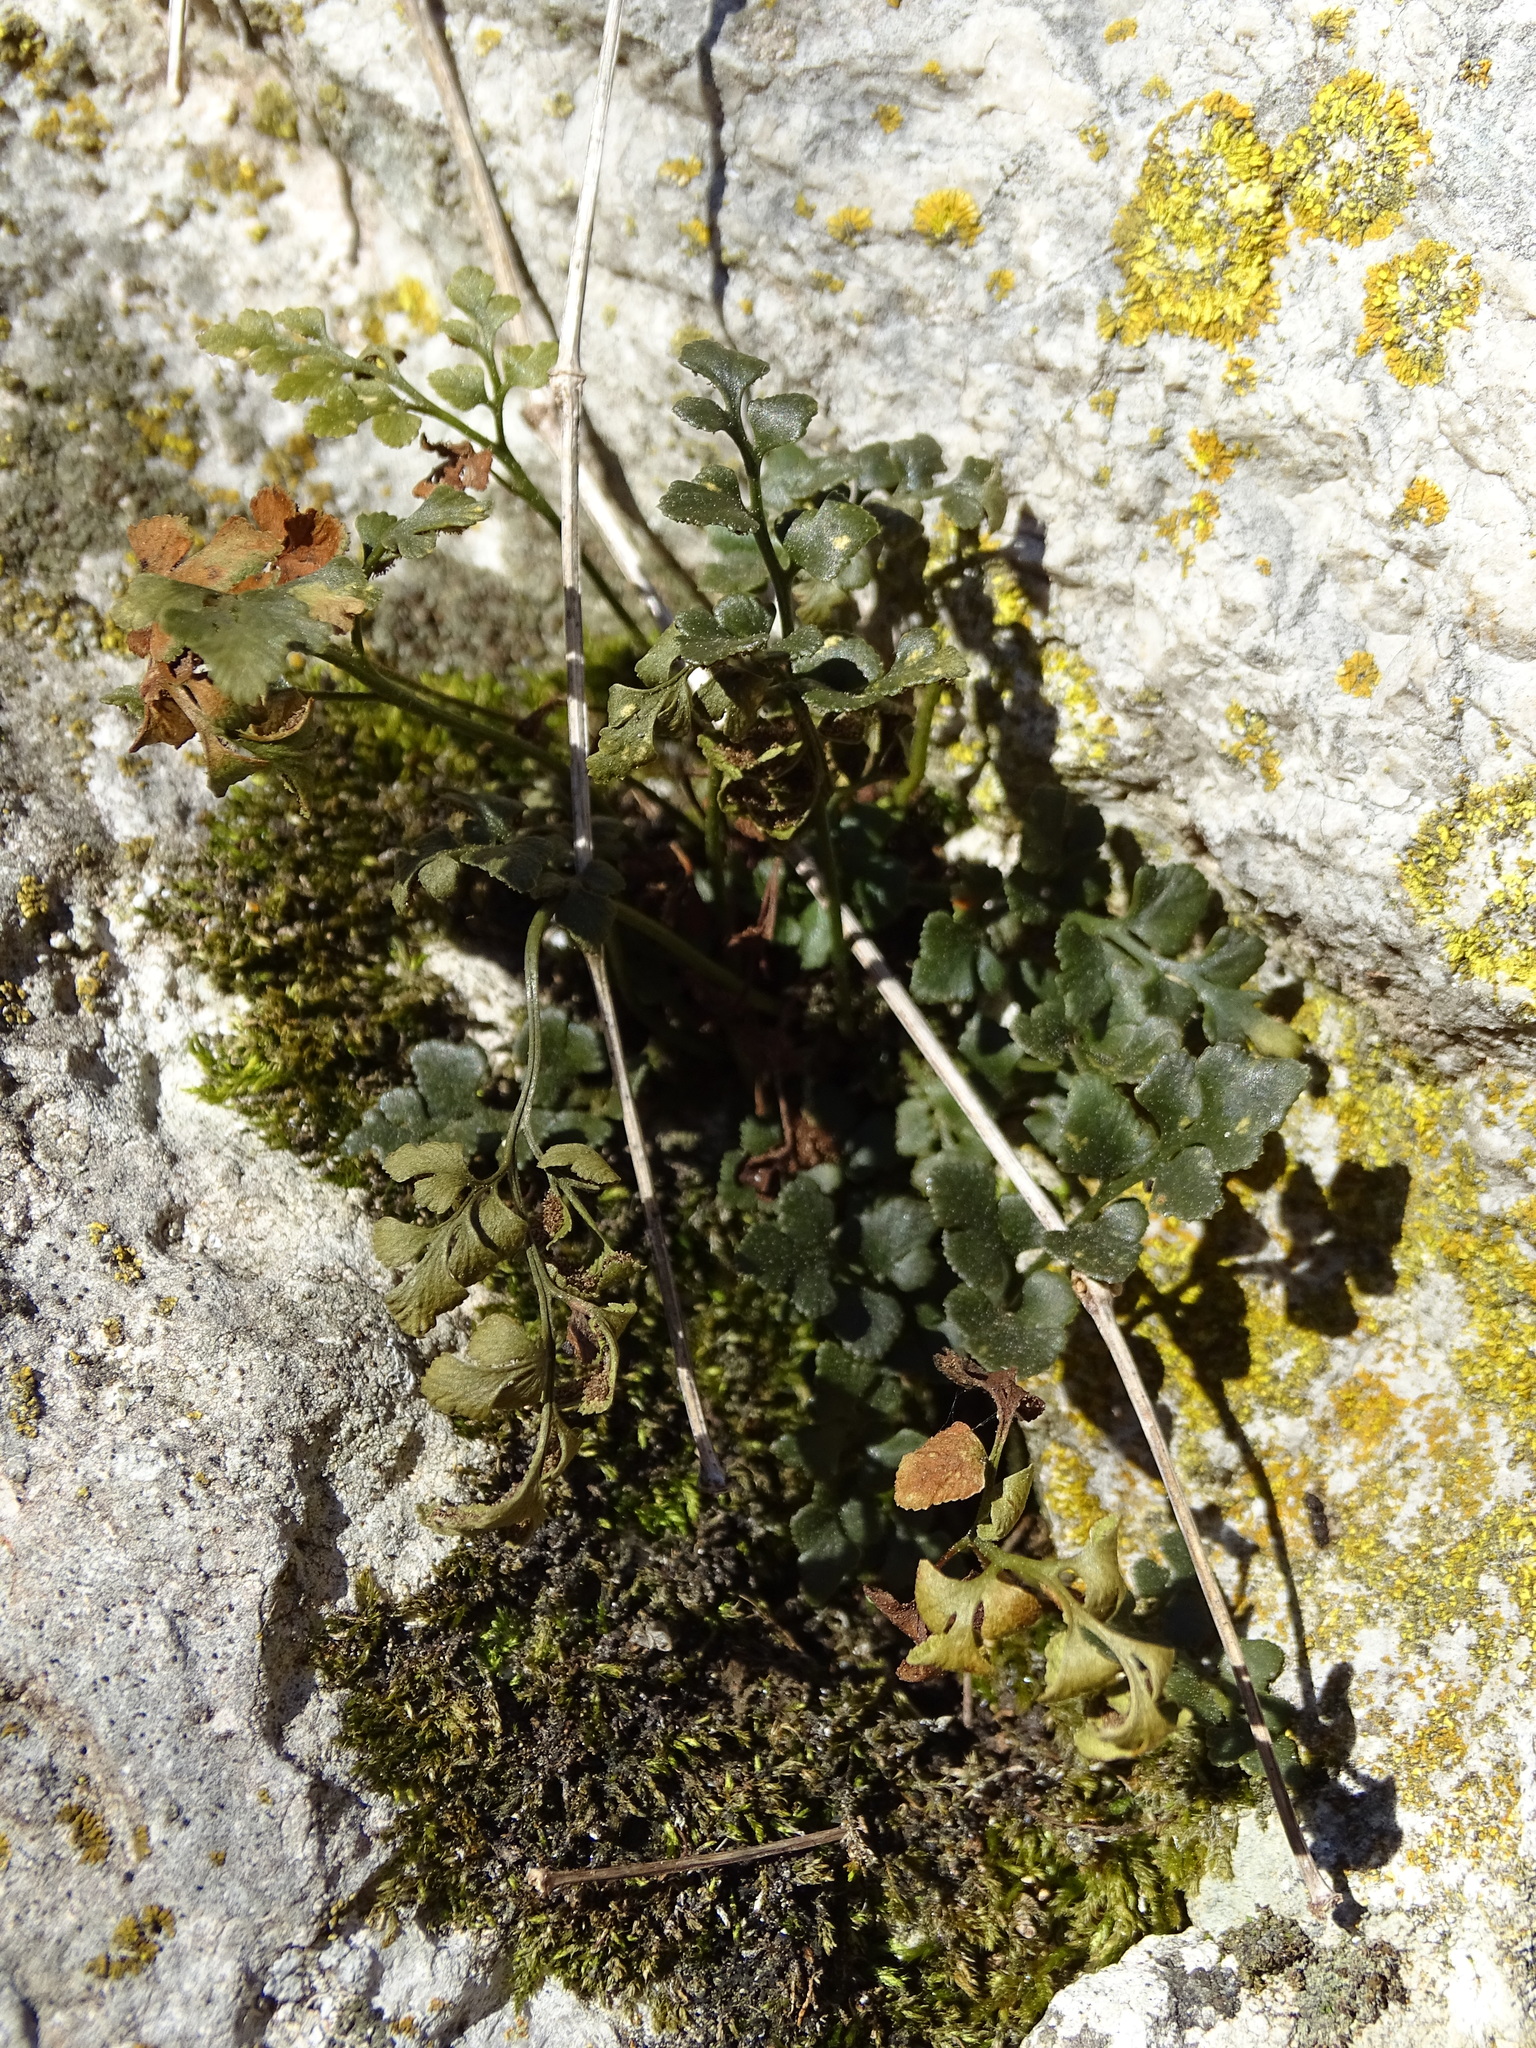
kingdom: Plantae
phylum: Tracheophyta
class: Polypodiopsida
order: Polypodiales
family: Aspleniaceae
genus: Asplenium
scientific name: Asplenium ruta-muraria
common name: Wall-rue
